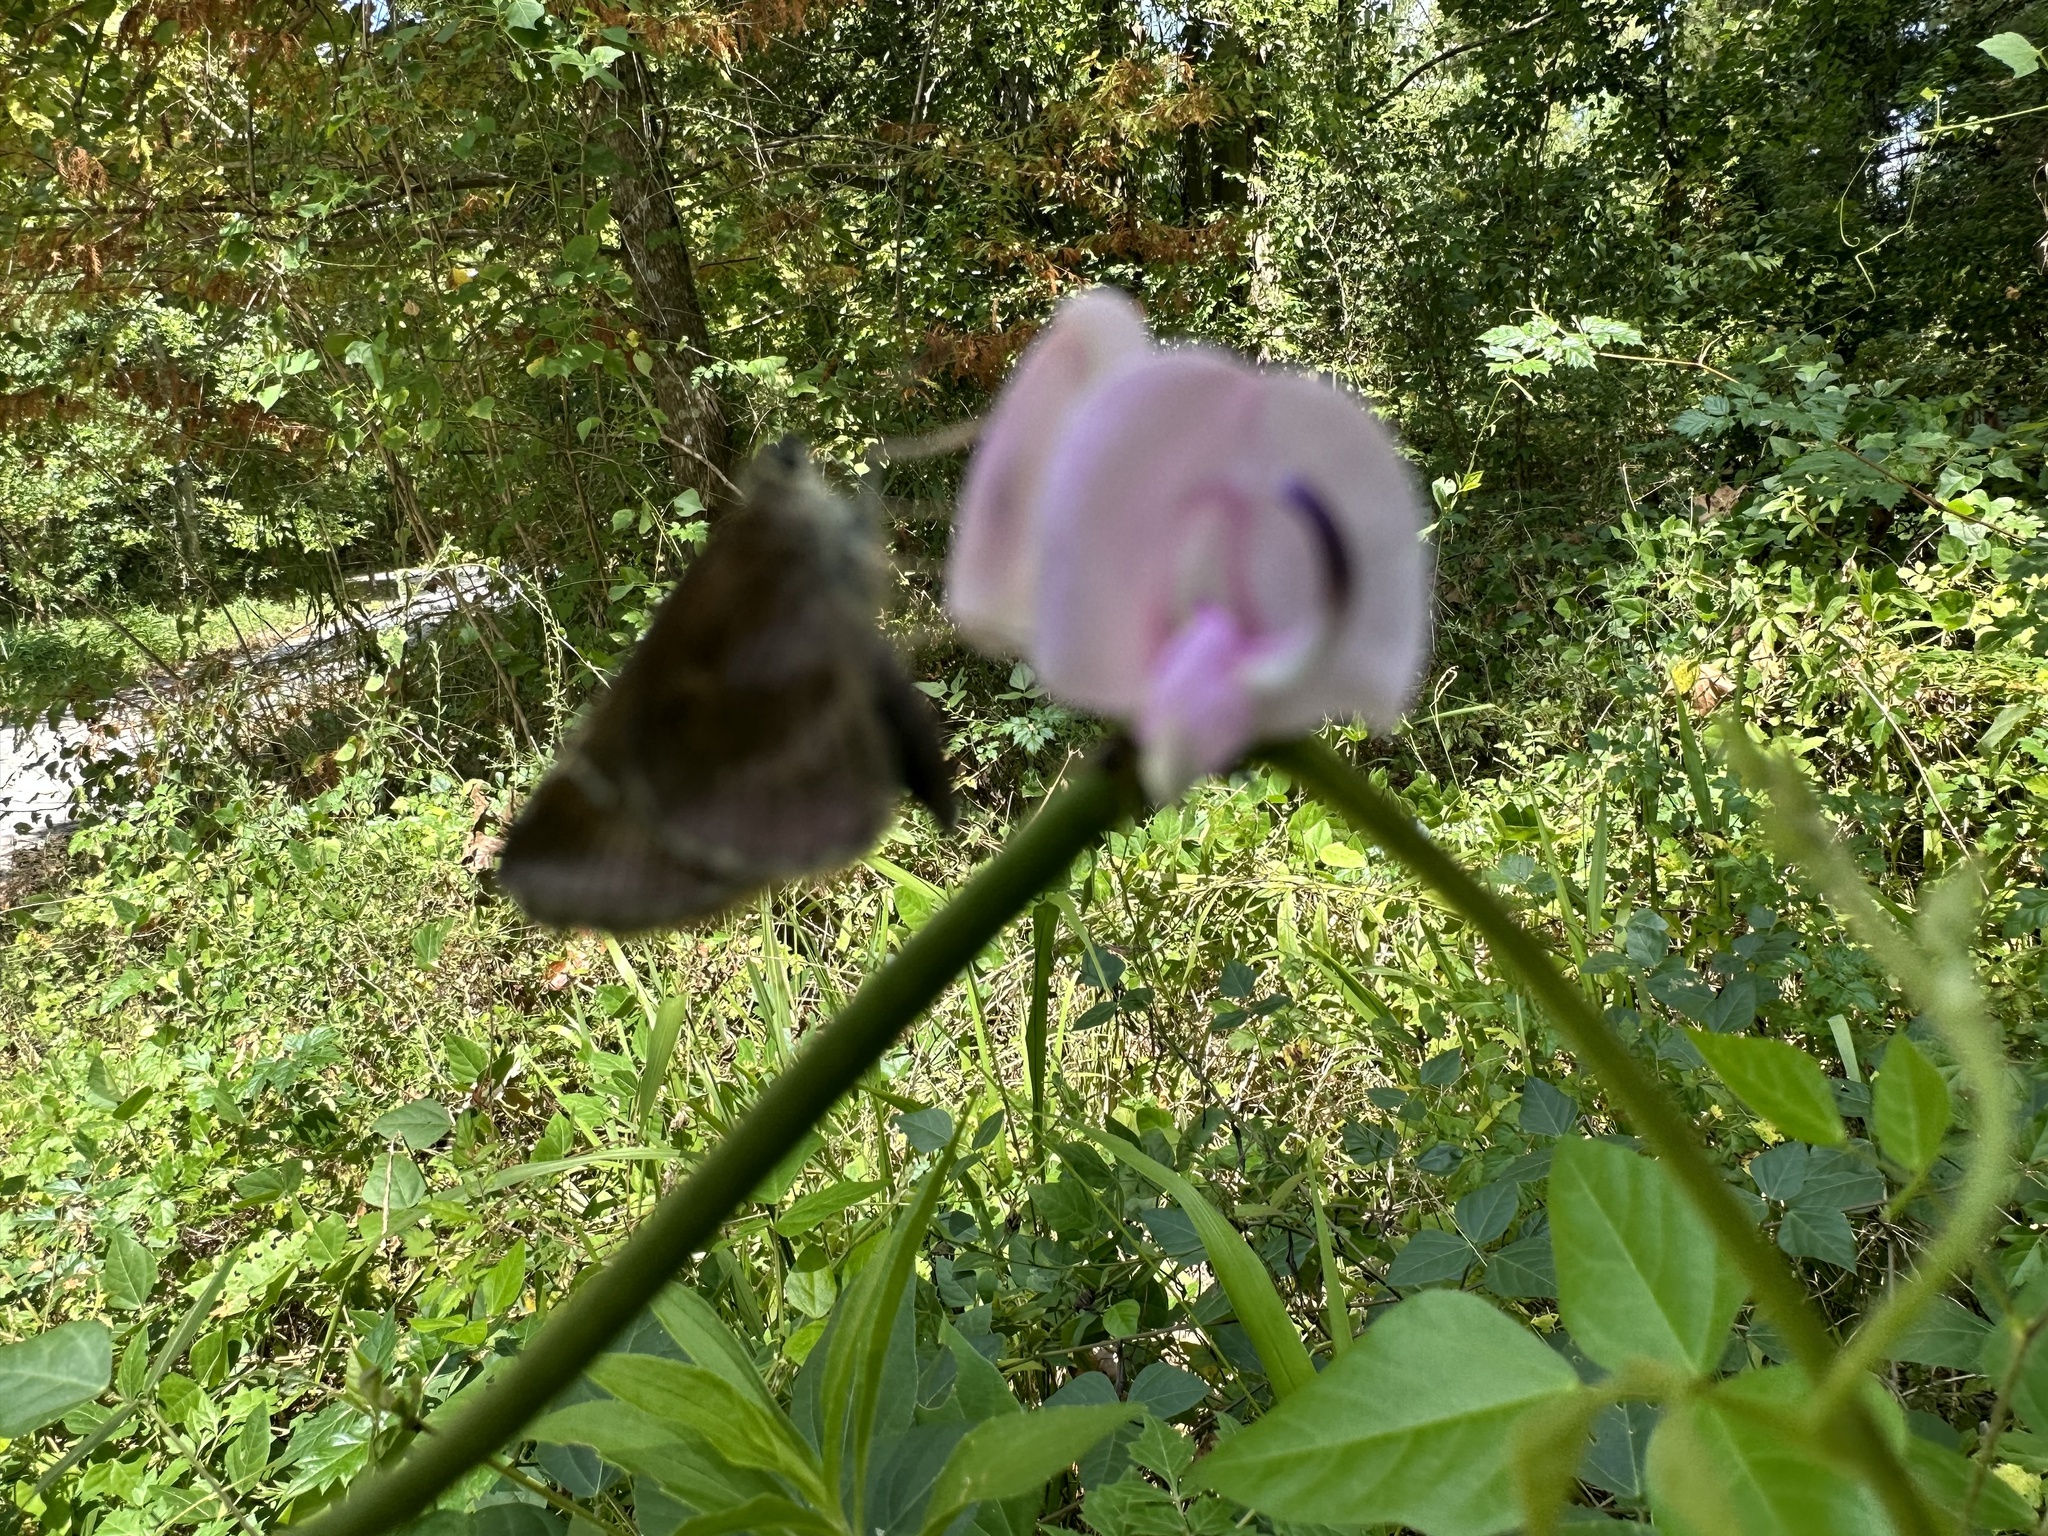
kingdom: Animalia
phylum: Arthropoda
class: Insecta
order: Lepidoptera
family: Hesperiidae
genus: Lerema
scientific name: Lerema accius
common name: Clouded skipper
